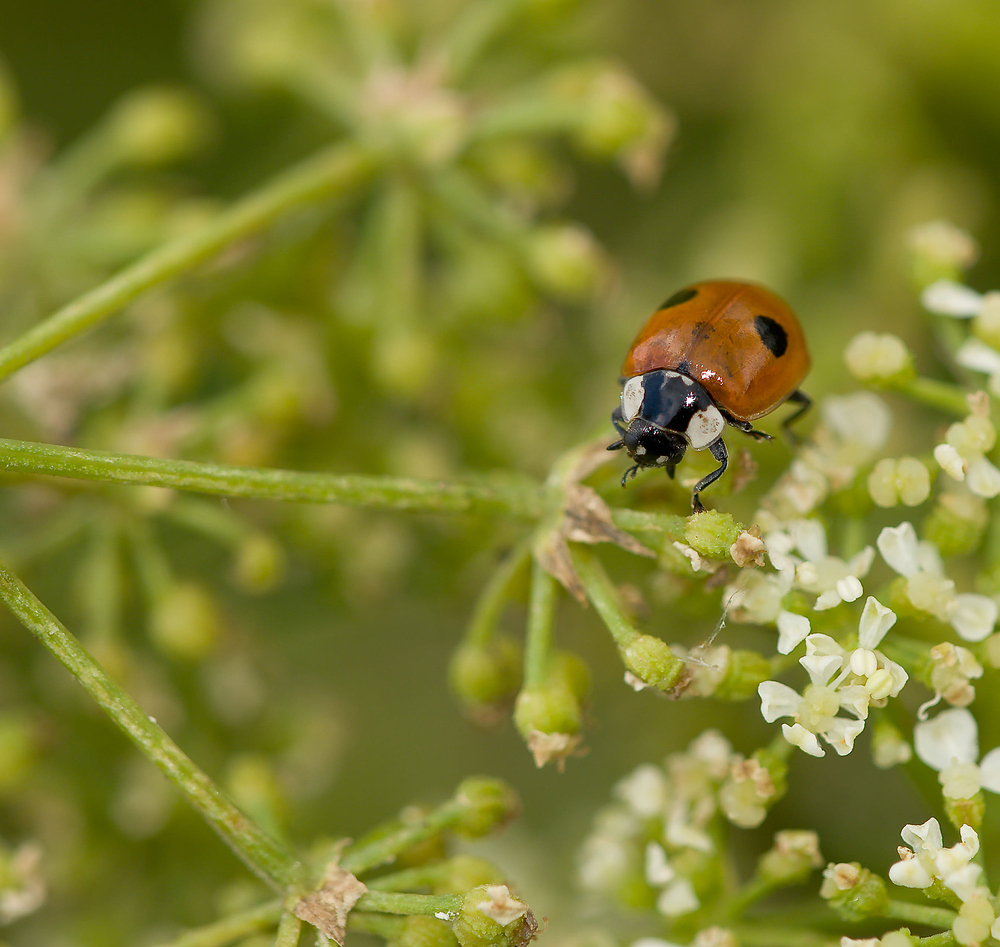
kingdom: Animalia
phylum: Arthropoda
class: Insecta
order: Coleoptera
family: Coccinellidae
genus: Adalia
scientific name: Adalia bipunctata
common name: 2-spot ladybird
